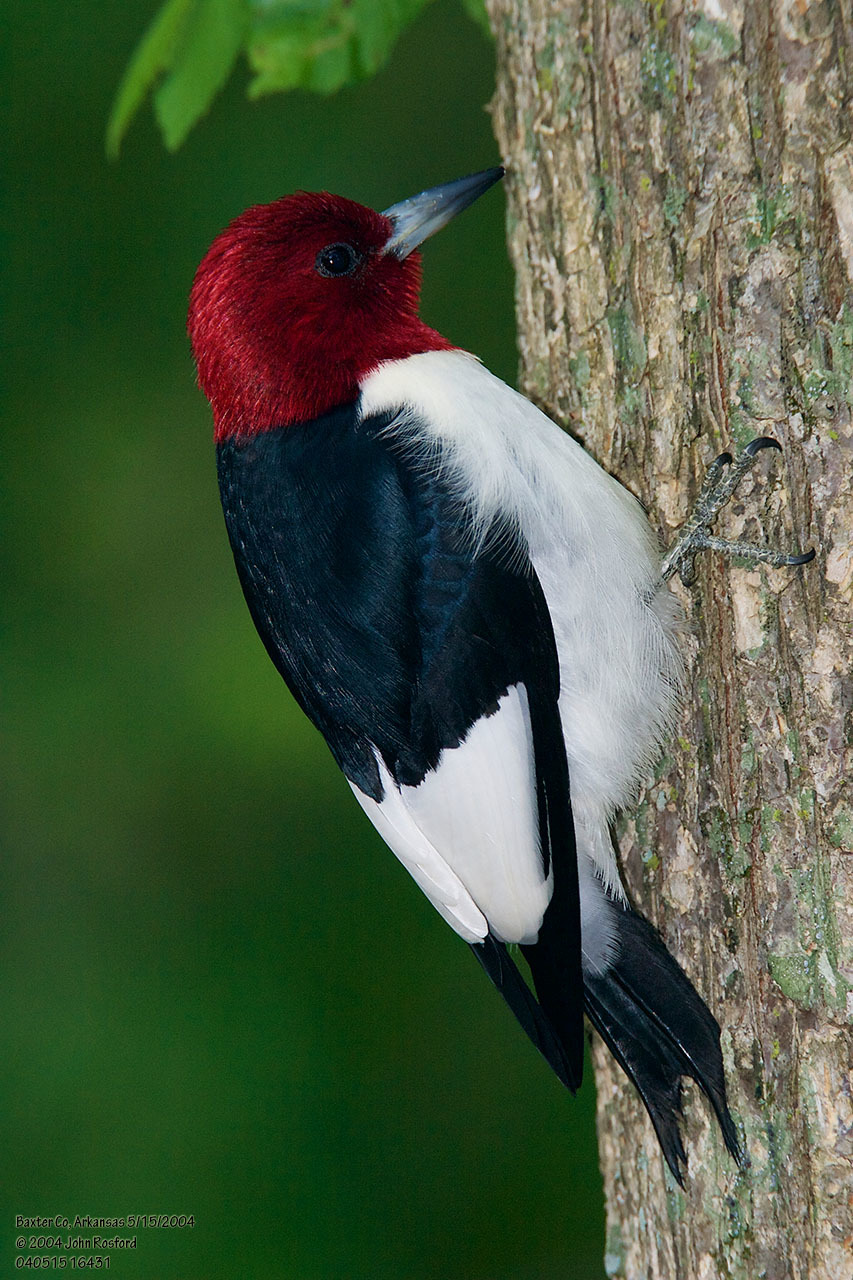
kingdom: Animalia
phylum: Chordata
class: Aves
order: Piciformes
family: Picidae
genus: Melanerpes
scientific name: Melanerpes erythrocephalus
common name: Red-headed woodpecker
